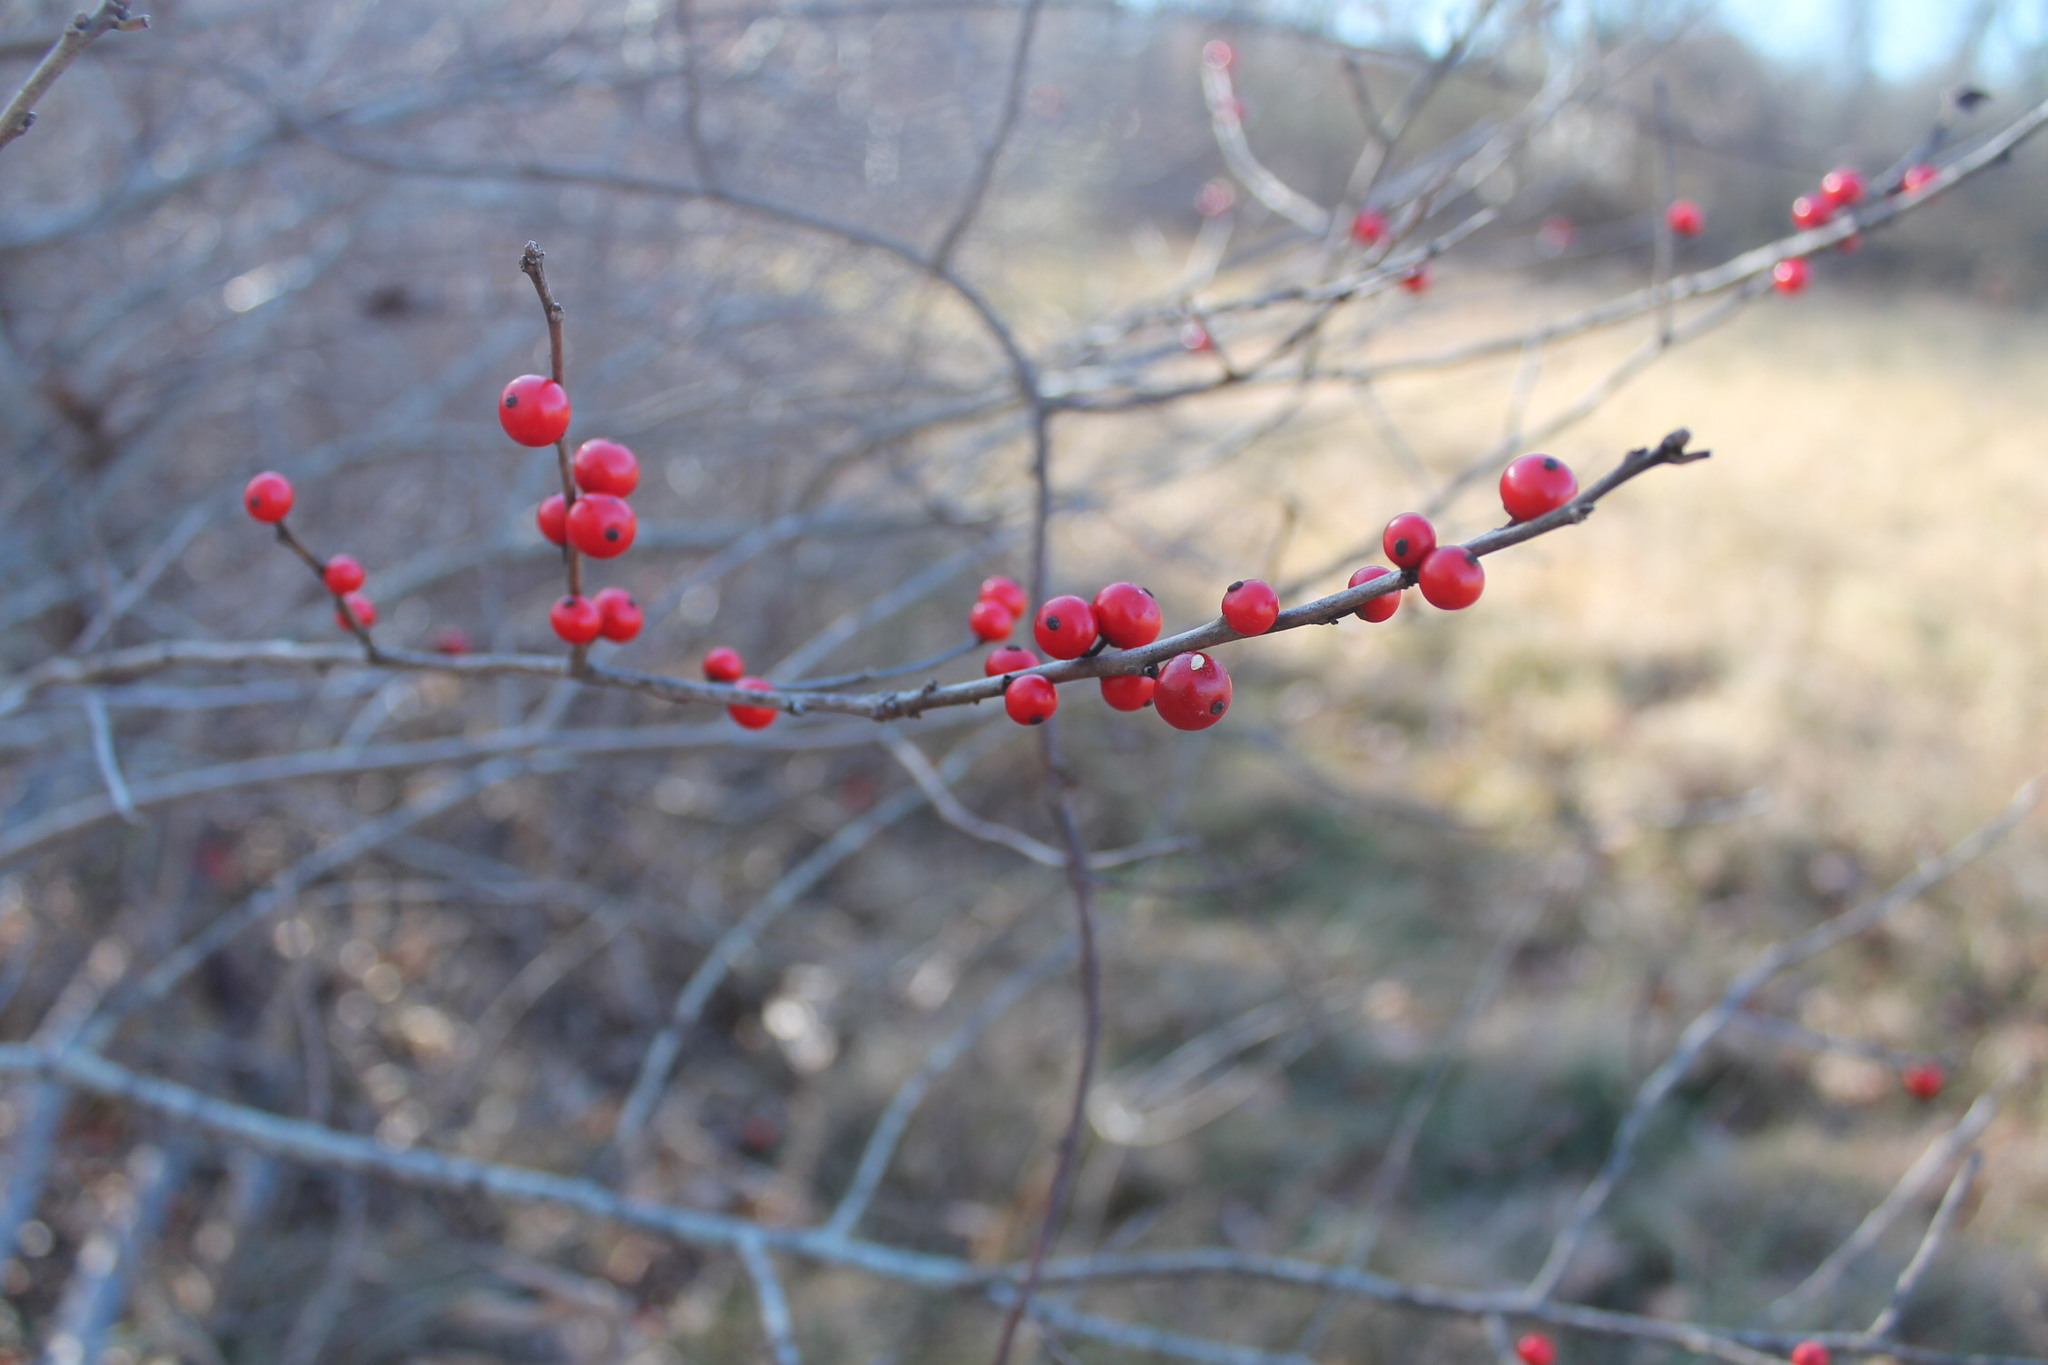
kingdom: Plantae
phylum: Tracheophyta
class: Magnoliopsida
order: Aquifoliales
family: Aquifoliaceae
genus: Ilex
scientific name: Ilex verticillata
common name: Virginia winterberry
